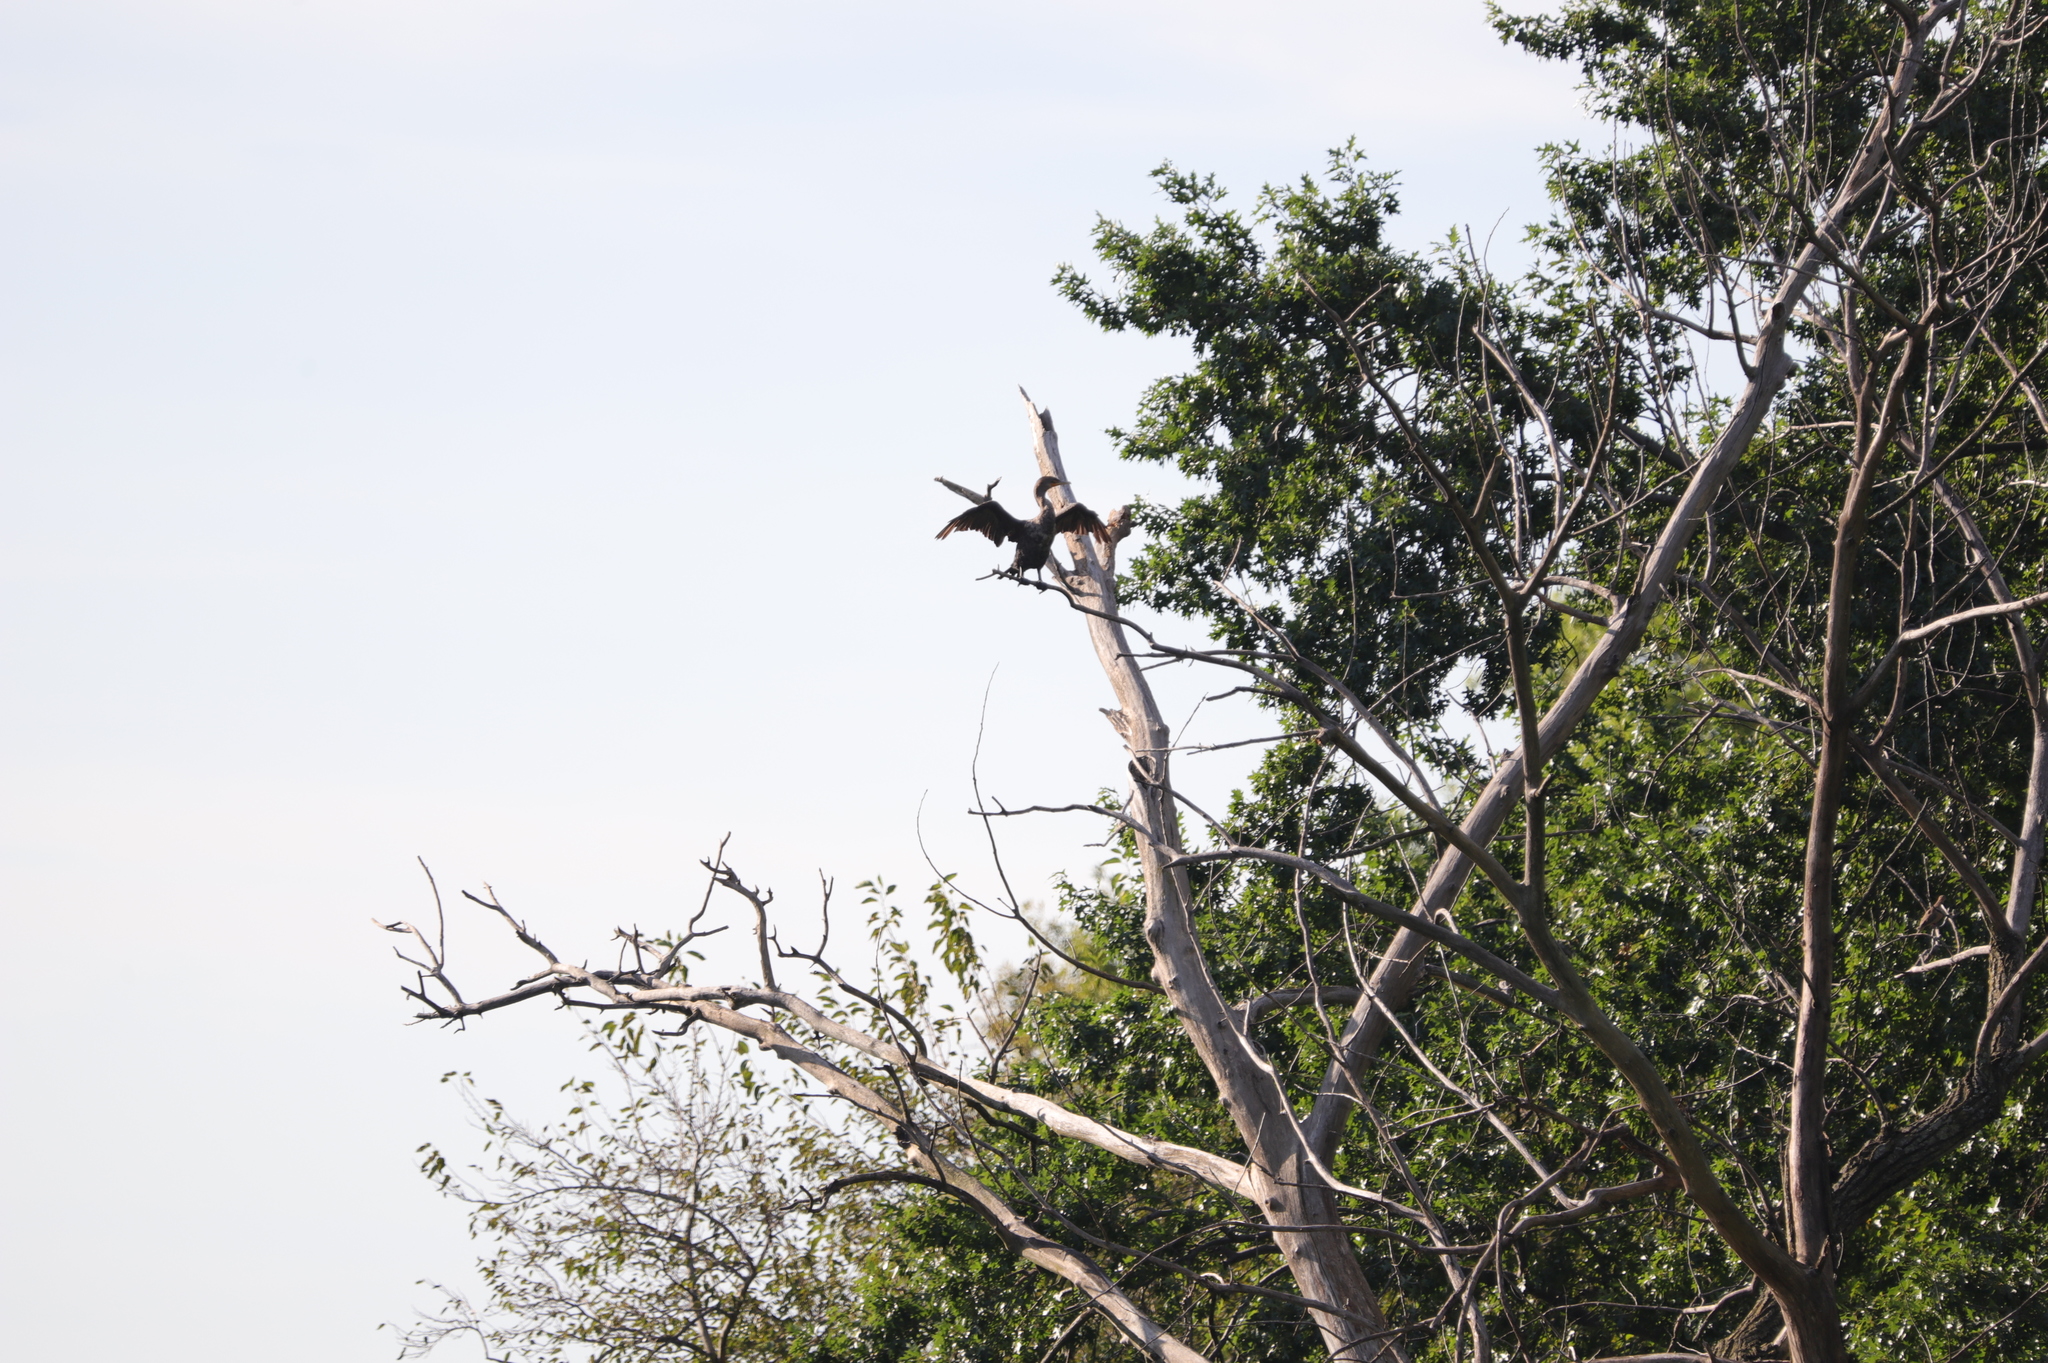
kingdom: Animalia
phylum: Chordata
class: Aves
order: Suliformes
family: Phalacrocoracidae
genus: Phalacrocorax
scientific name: Phalacrocorax auritus
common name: Double-crested cormorant
